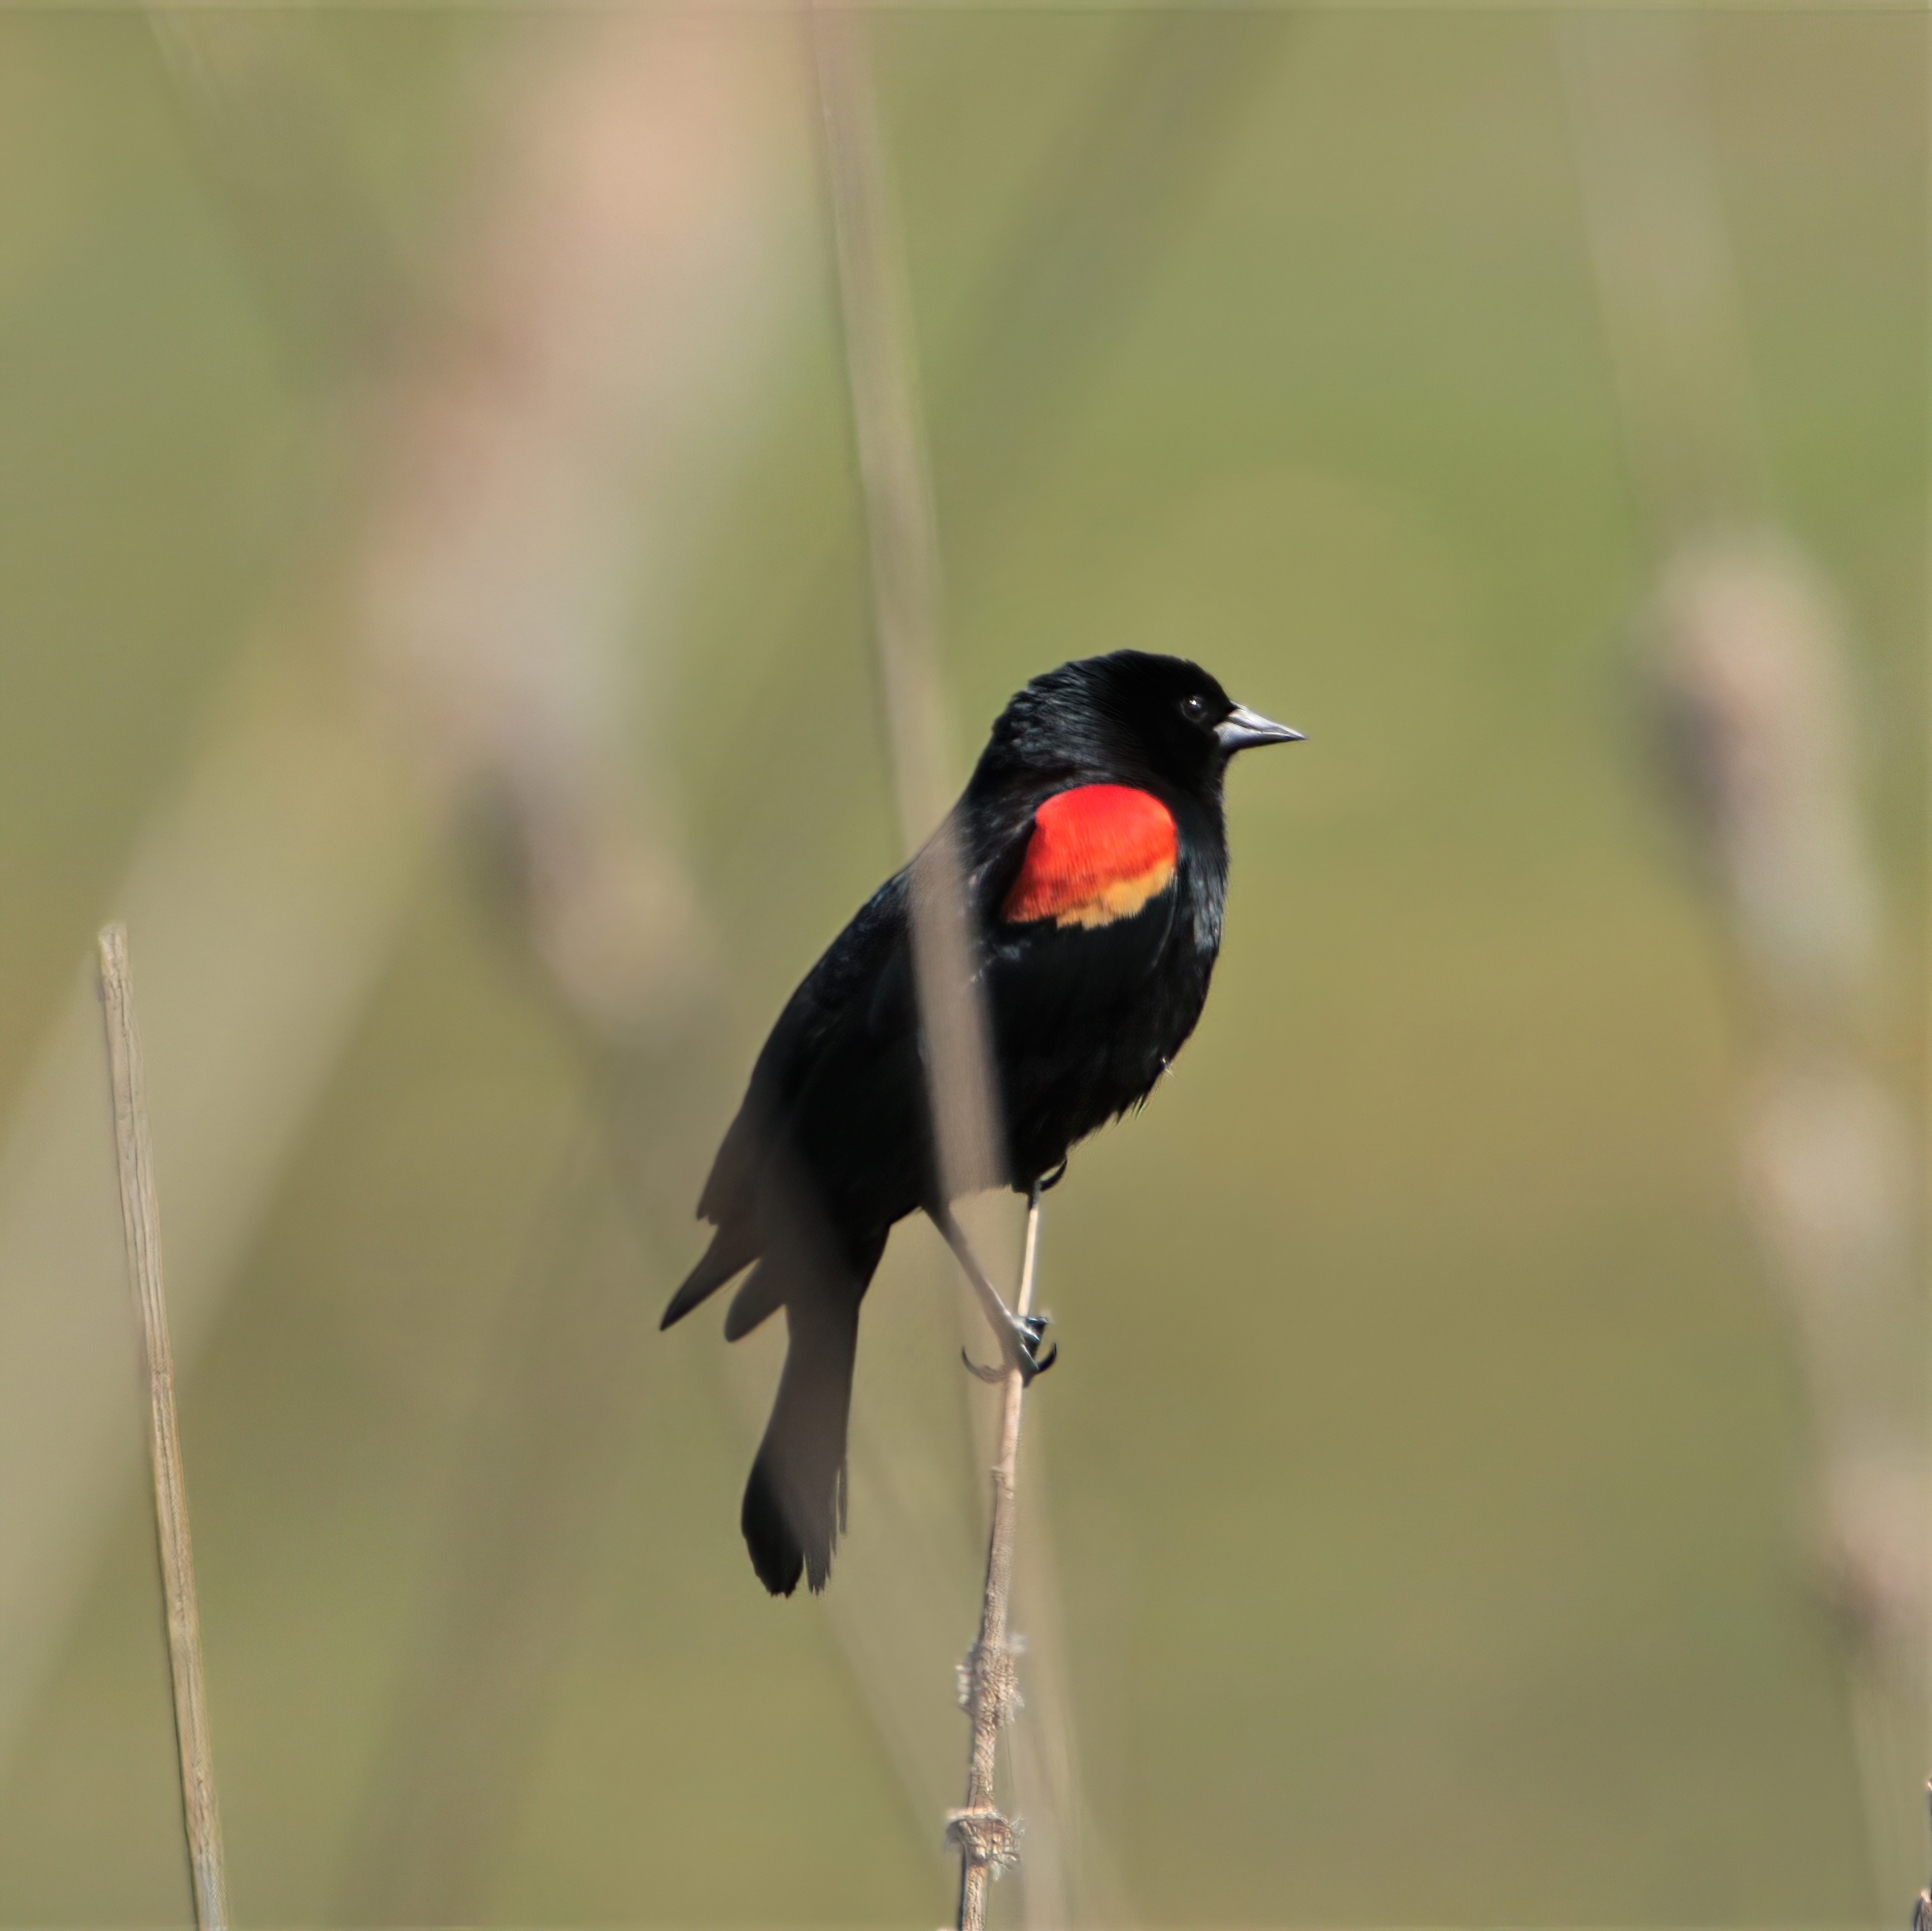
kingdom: Animalia
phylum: Chordata
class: Aves
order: Passeriformes
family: Icteridae
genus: Agelaius
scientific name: Agelaius phoeniceus
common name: Red-winged blackbird
